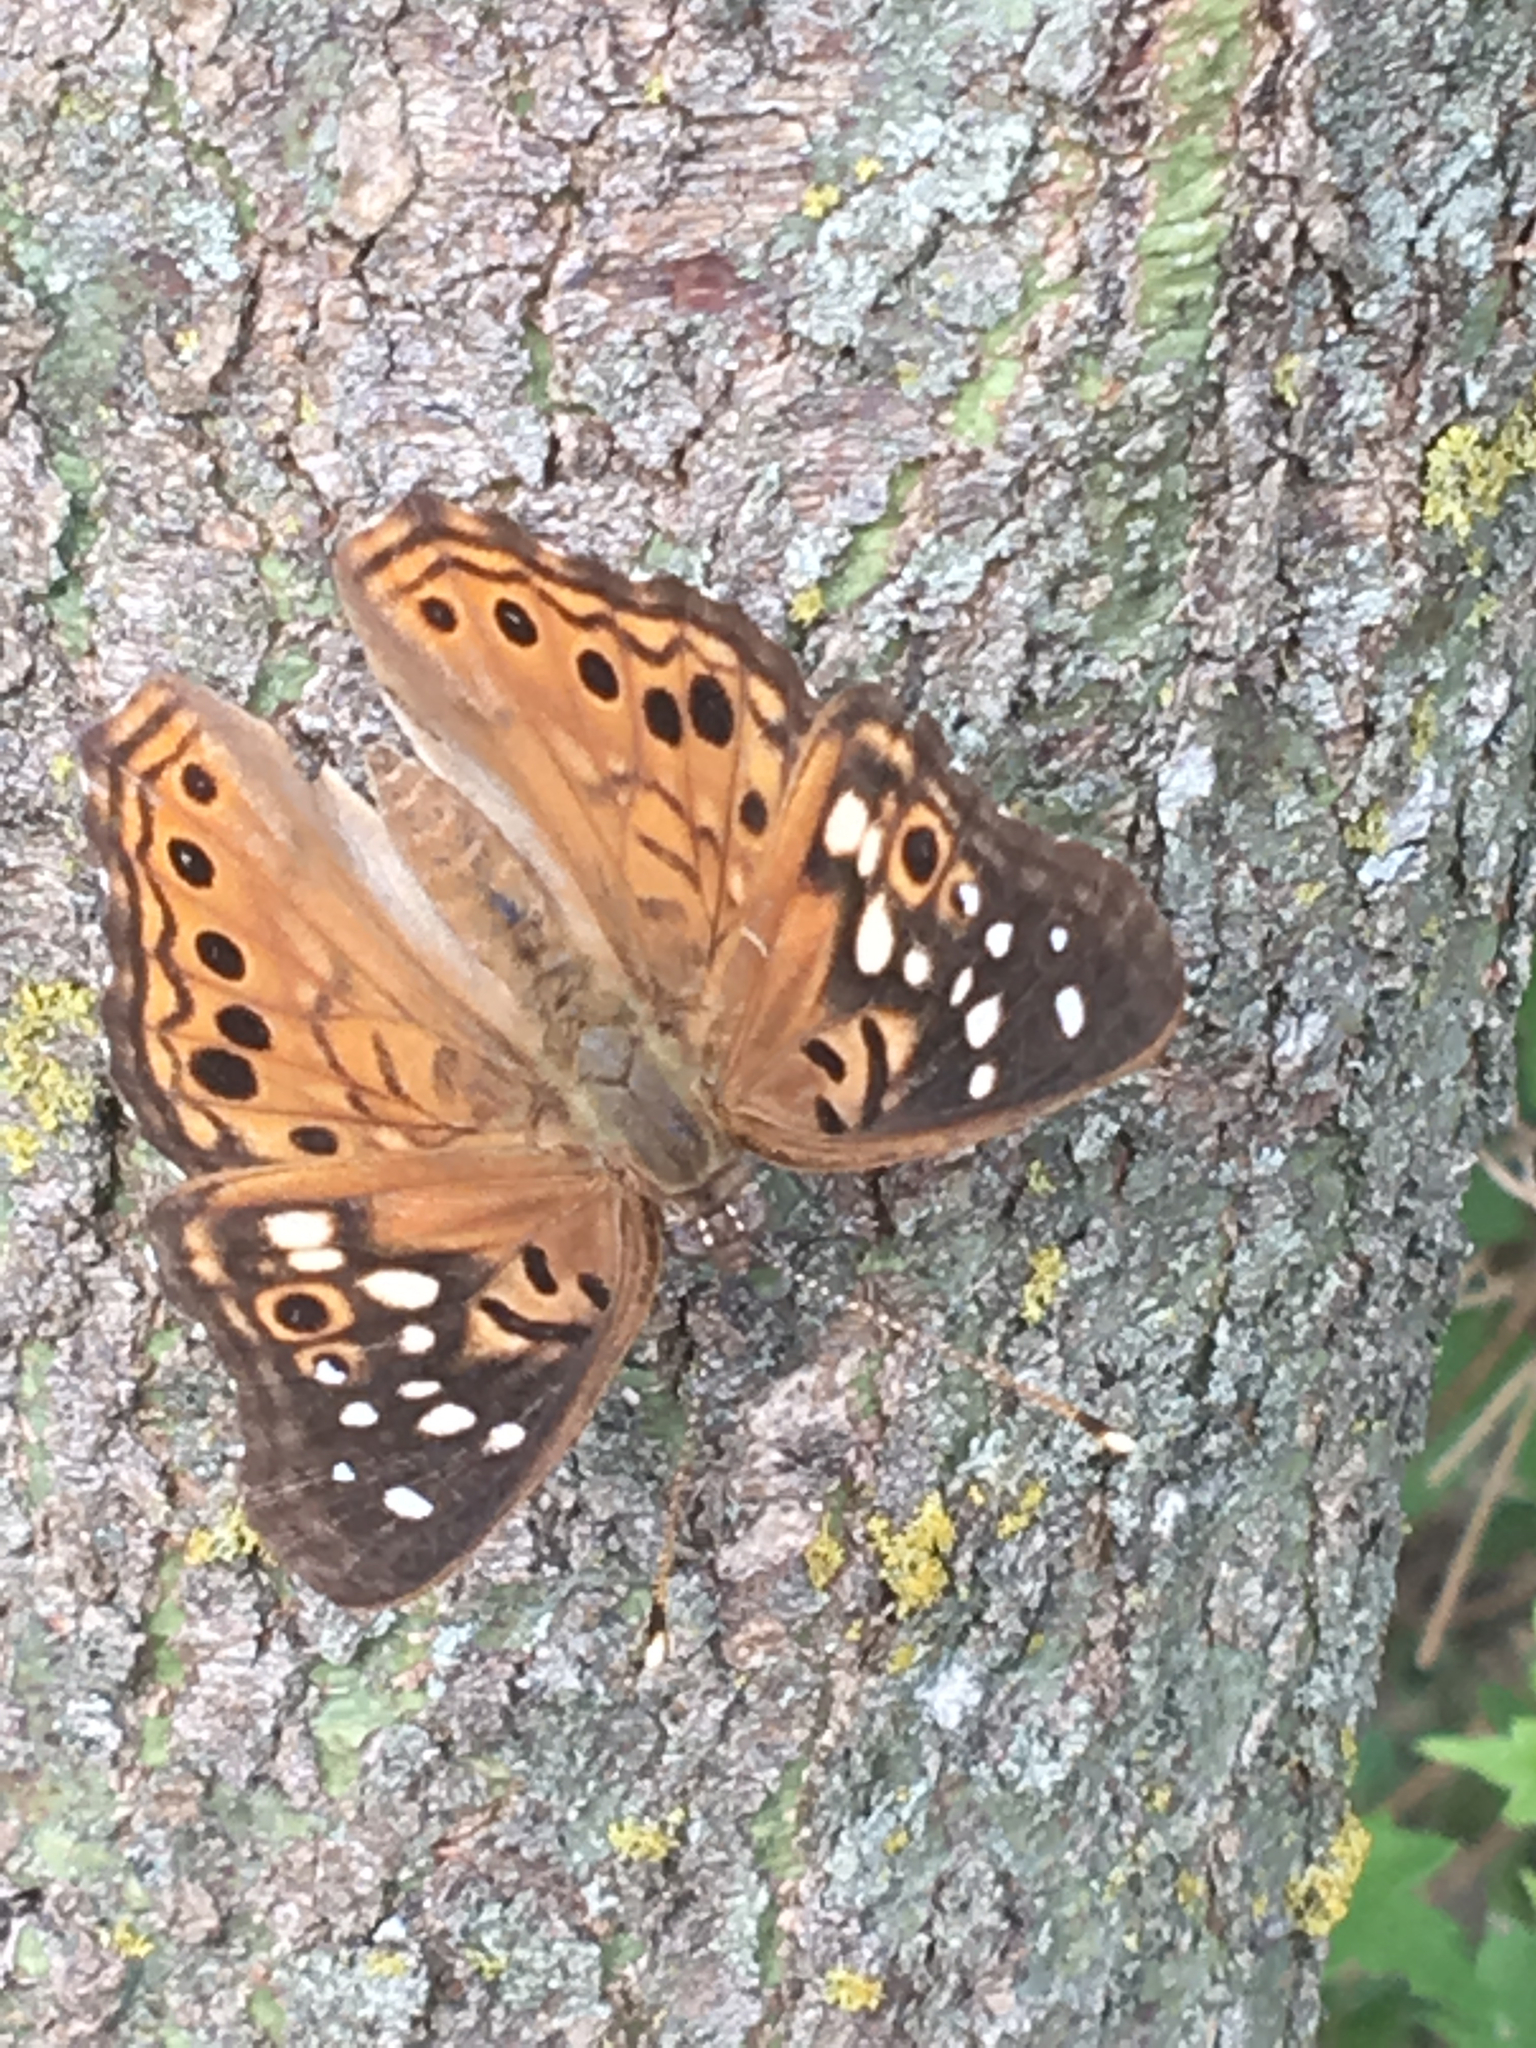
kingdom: Animalia
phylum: Arthropoda
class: Insecta
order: Lepidoptera
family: Nymphalidae
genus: Asterocampa
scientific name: Asterocampa celtis
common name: Hackberry emperor
